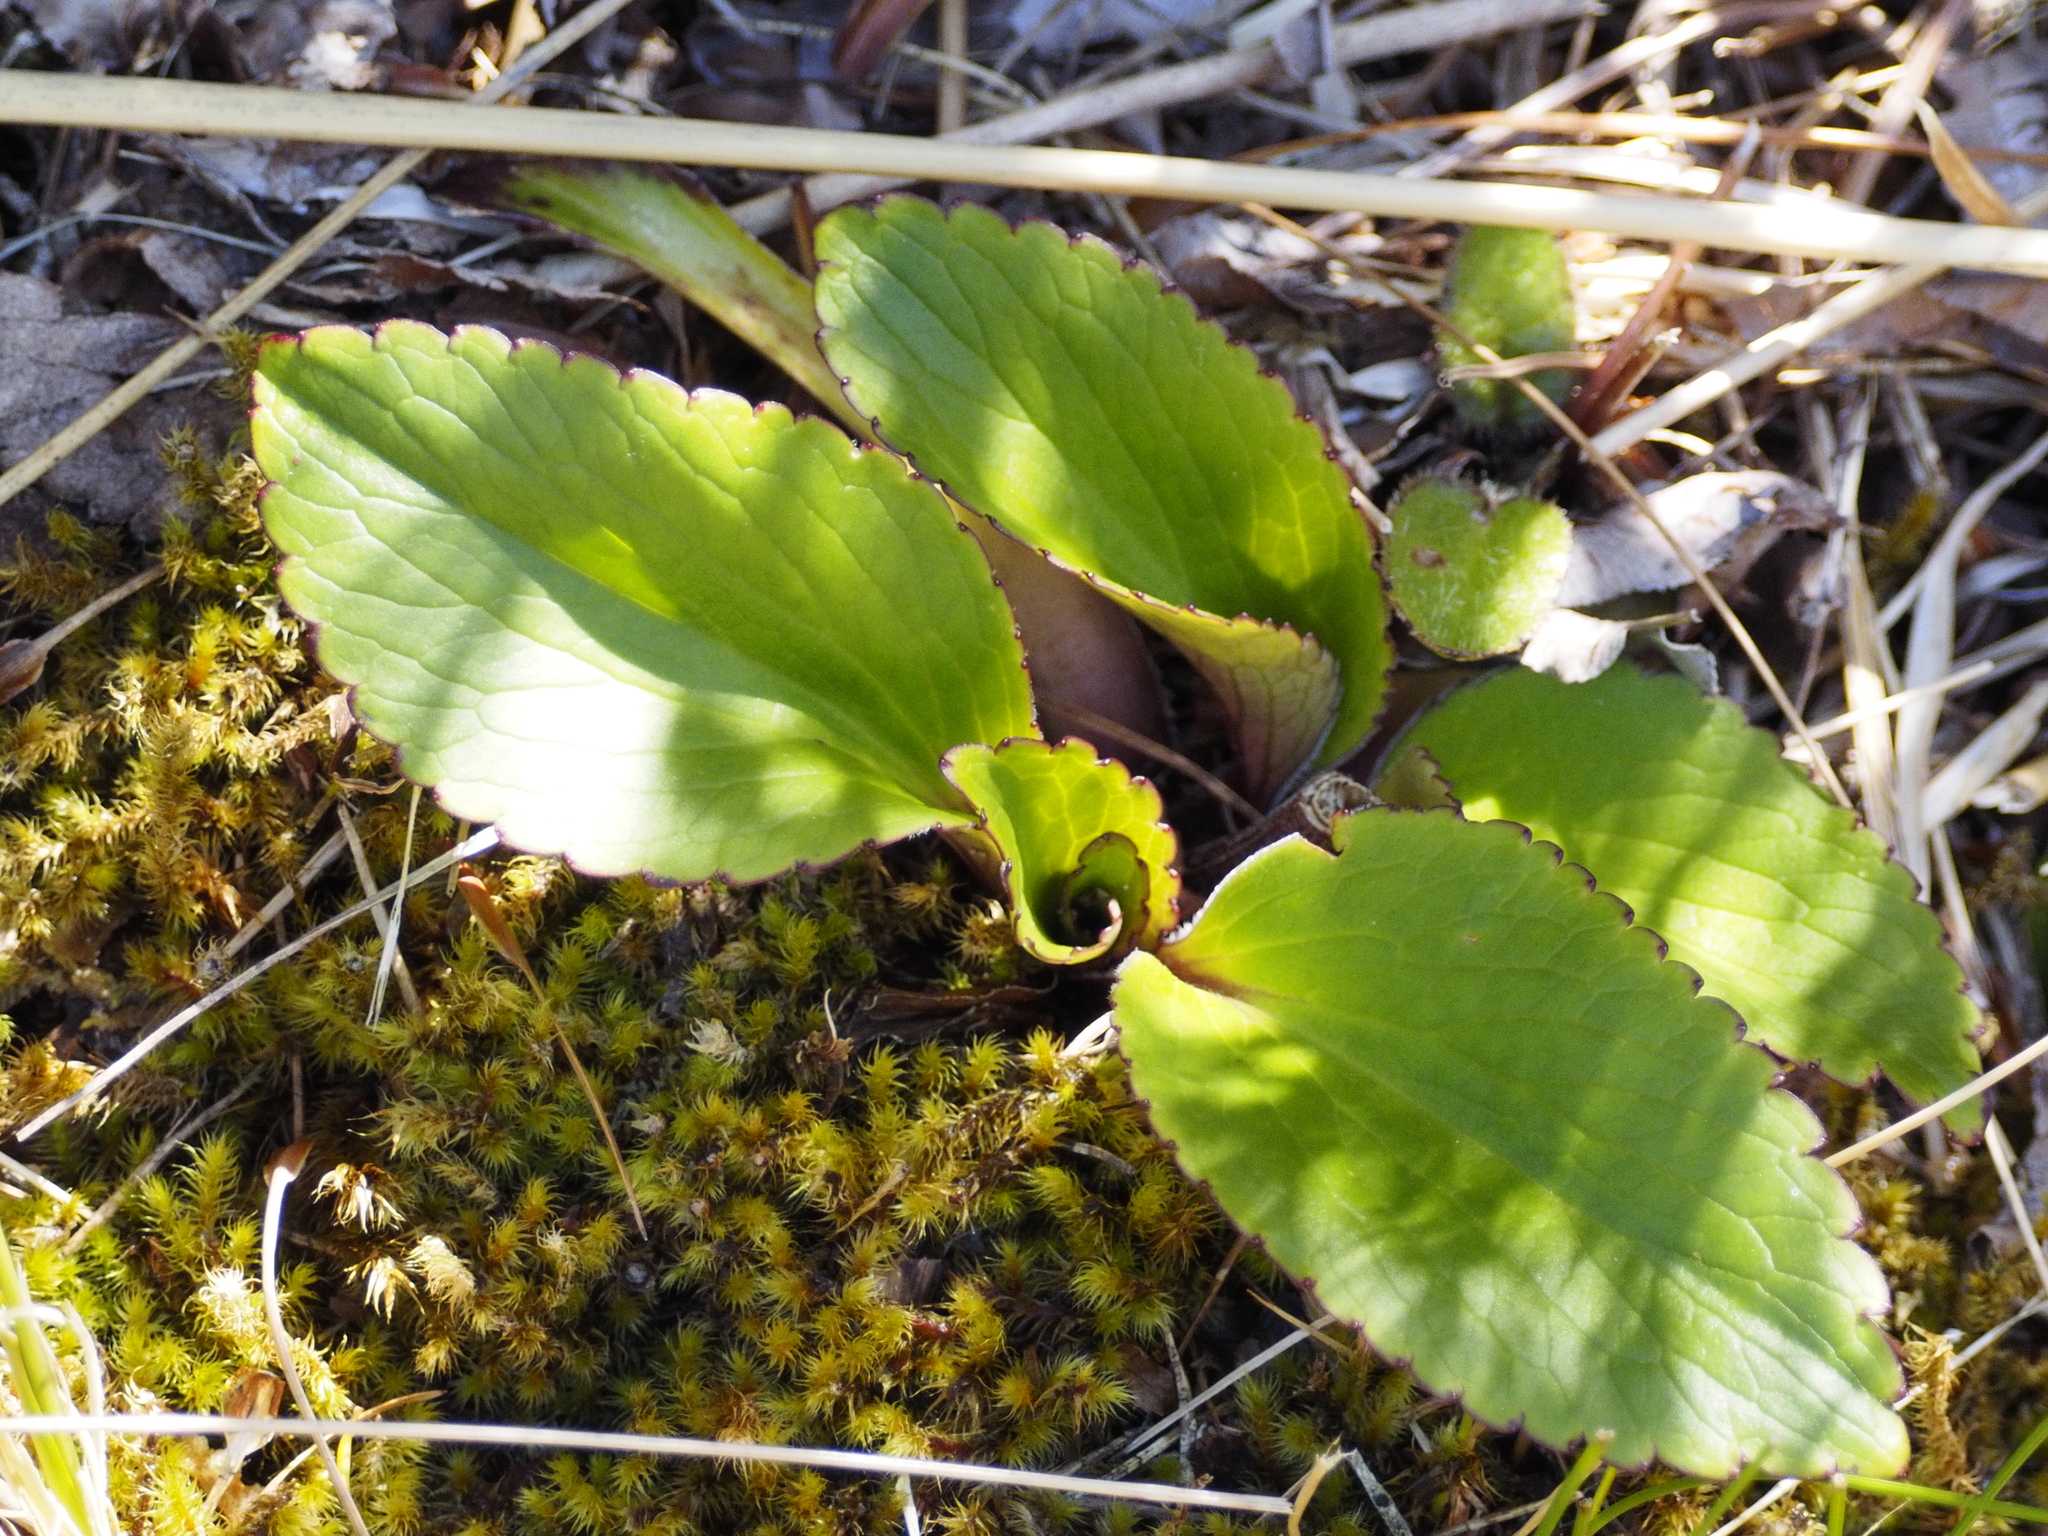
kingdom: Plantae
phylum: Tracheophyta
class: Magnoliopsida
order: Lamiales
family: Plantaginaceae
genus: Ourisia
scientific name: Ourisia calycina
